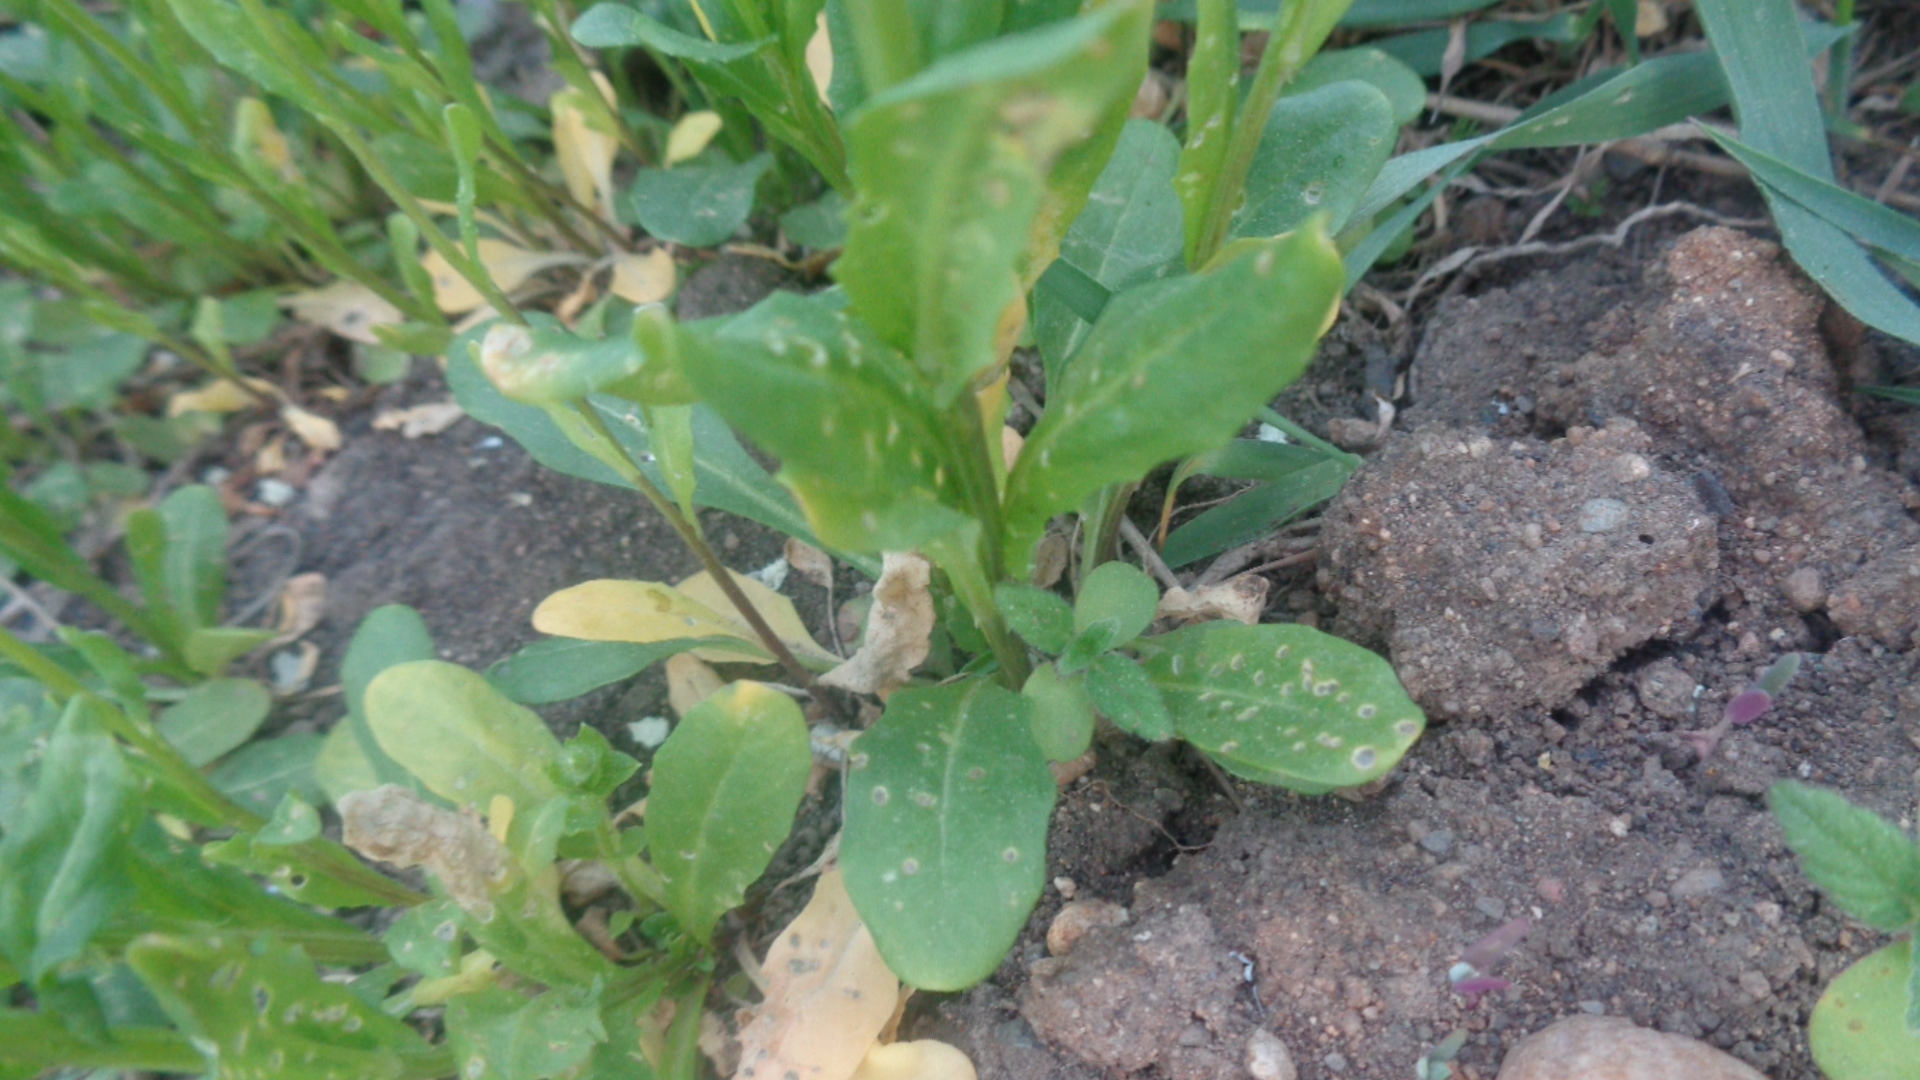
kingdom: Plantae
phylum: Tracheophyta
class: Magnoliopsida
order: Brassicales
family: Brassicaceae
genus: Thlaspi
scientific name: Thlaspi arvense
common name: Field pennycress
